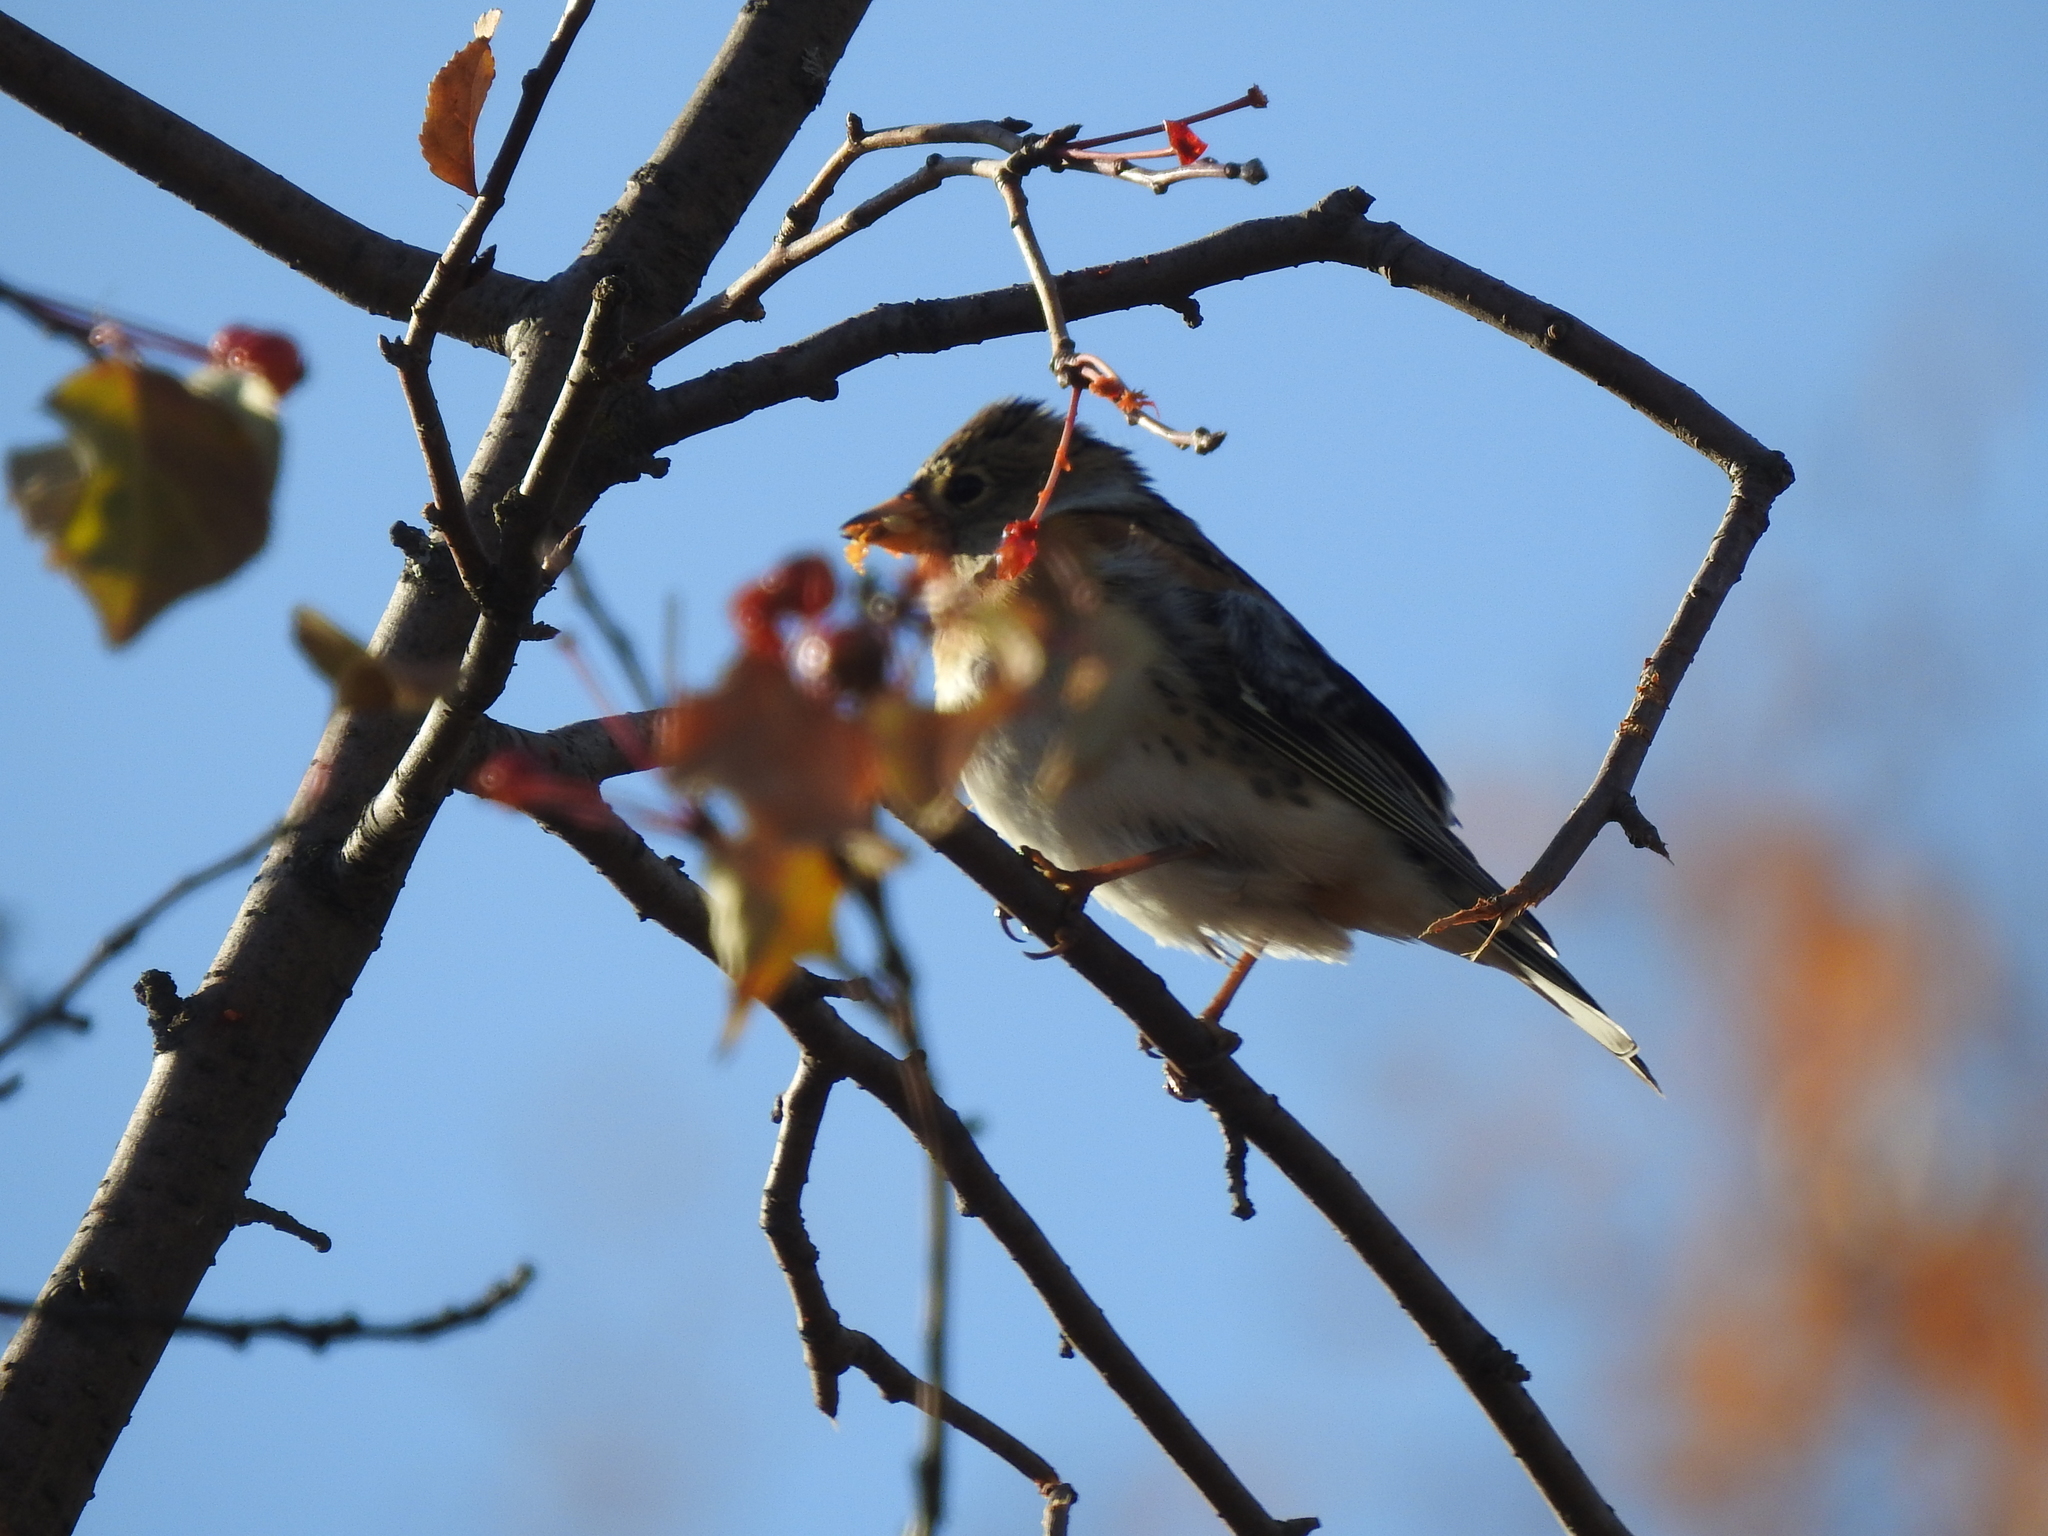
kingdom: Animalia
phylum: Chordata
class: Aves
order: Passeriformes
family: Fringillidae
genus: Fringilla
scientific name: Fringilla montifringilla
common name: Brambling
